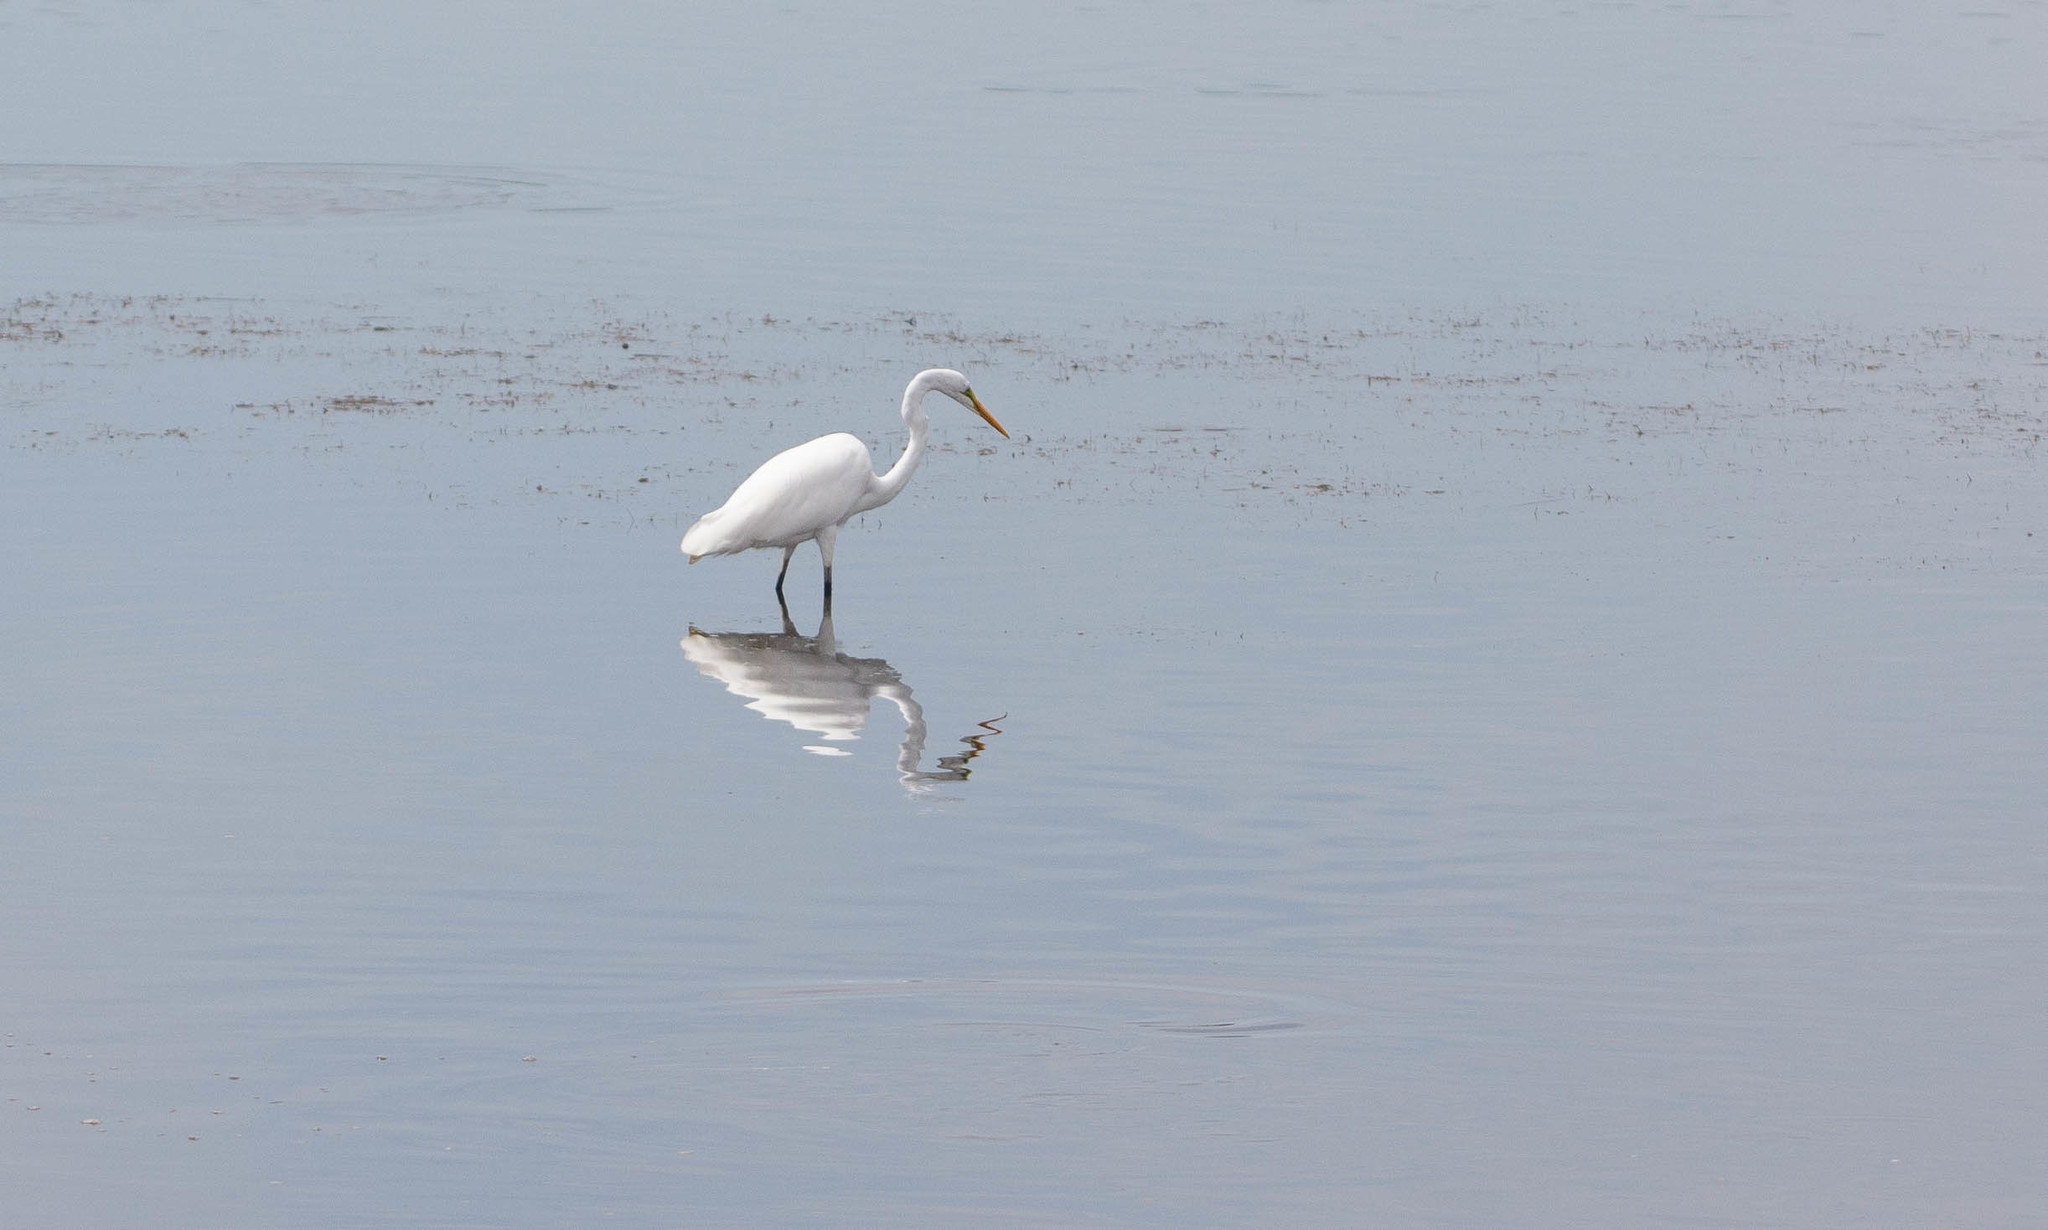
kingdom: Animalia
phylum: Chordata
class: Aves
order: Pelecaniformes
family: Ardeidae
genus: Ardea
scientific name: Ardea alba
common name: Great egret
